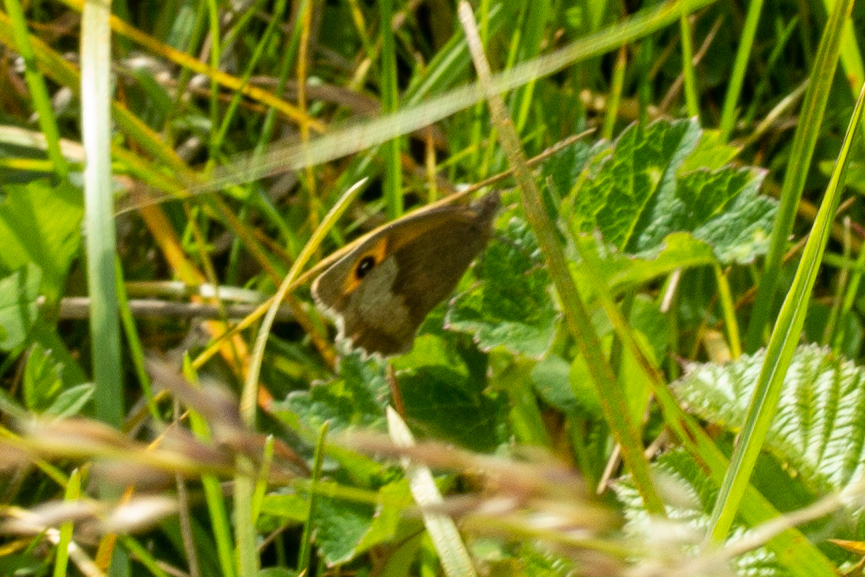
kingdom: Animalia
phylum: Arthropoda
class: Insecta
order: Lepidoptera
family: Nymphalidae
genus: Maniola
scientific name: Maniola jurtina
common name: Meadow brown
